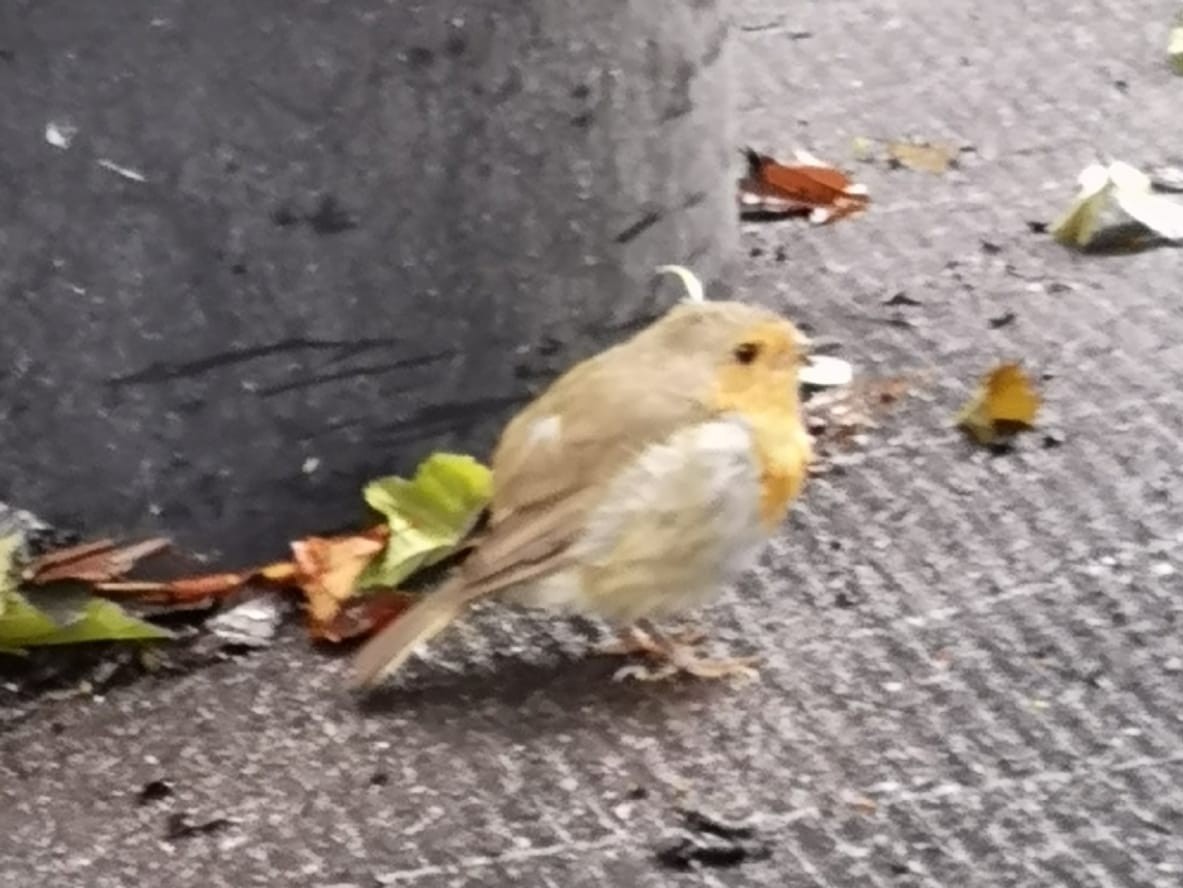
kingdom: Animalia
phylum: Chordata
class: Aves
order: Passeriformes
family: Muscicapidae
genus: Erithacus
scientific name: Erithacus rubecula
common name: European robin
